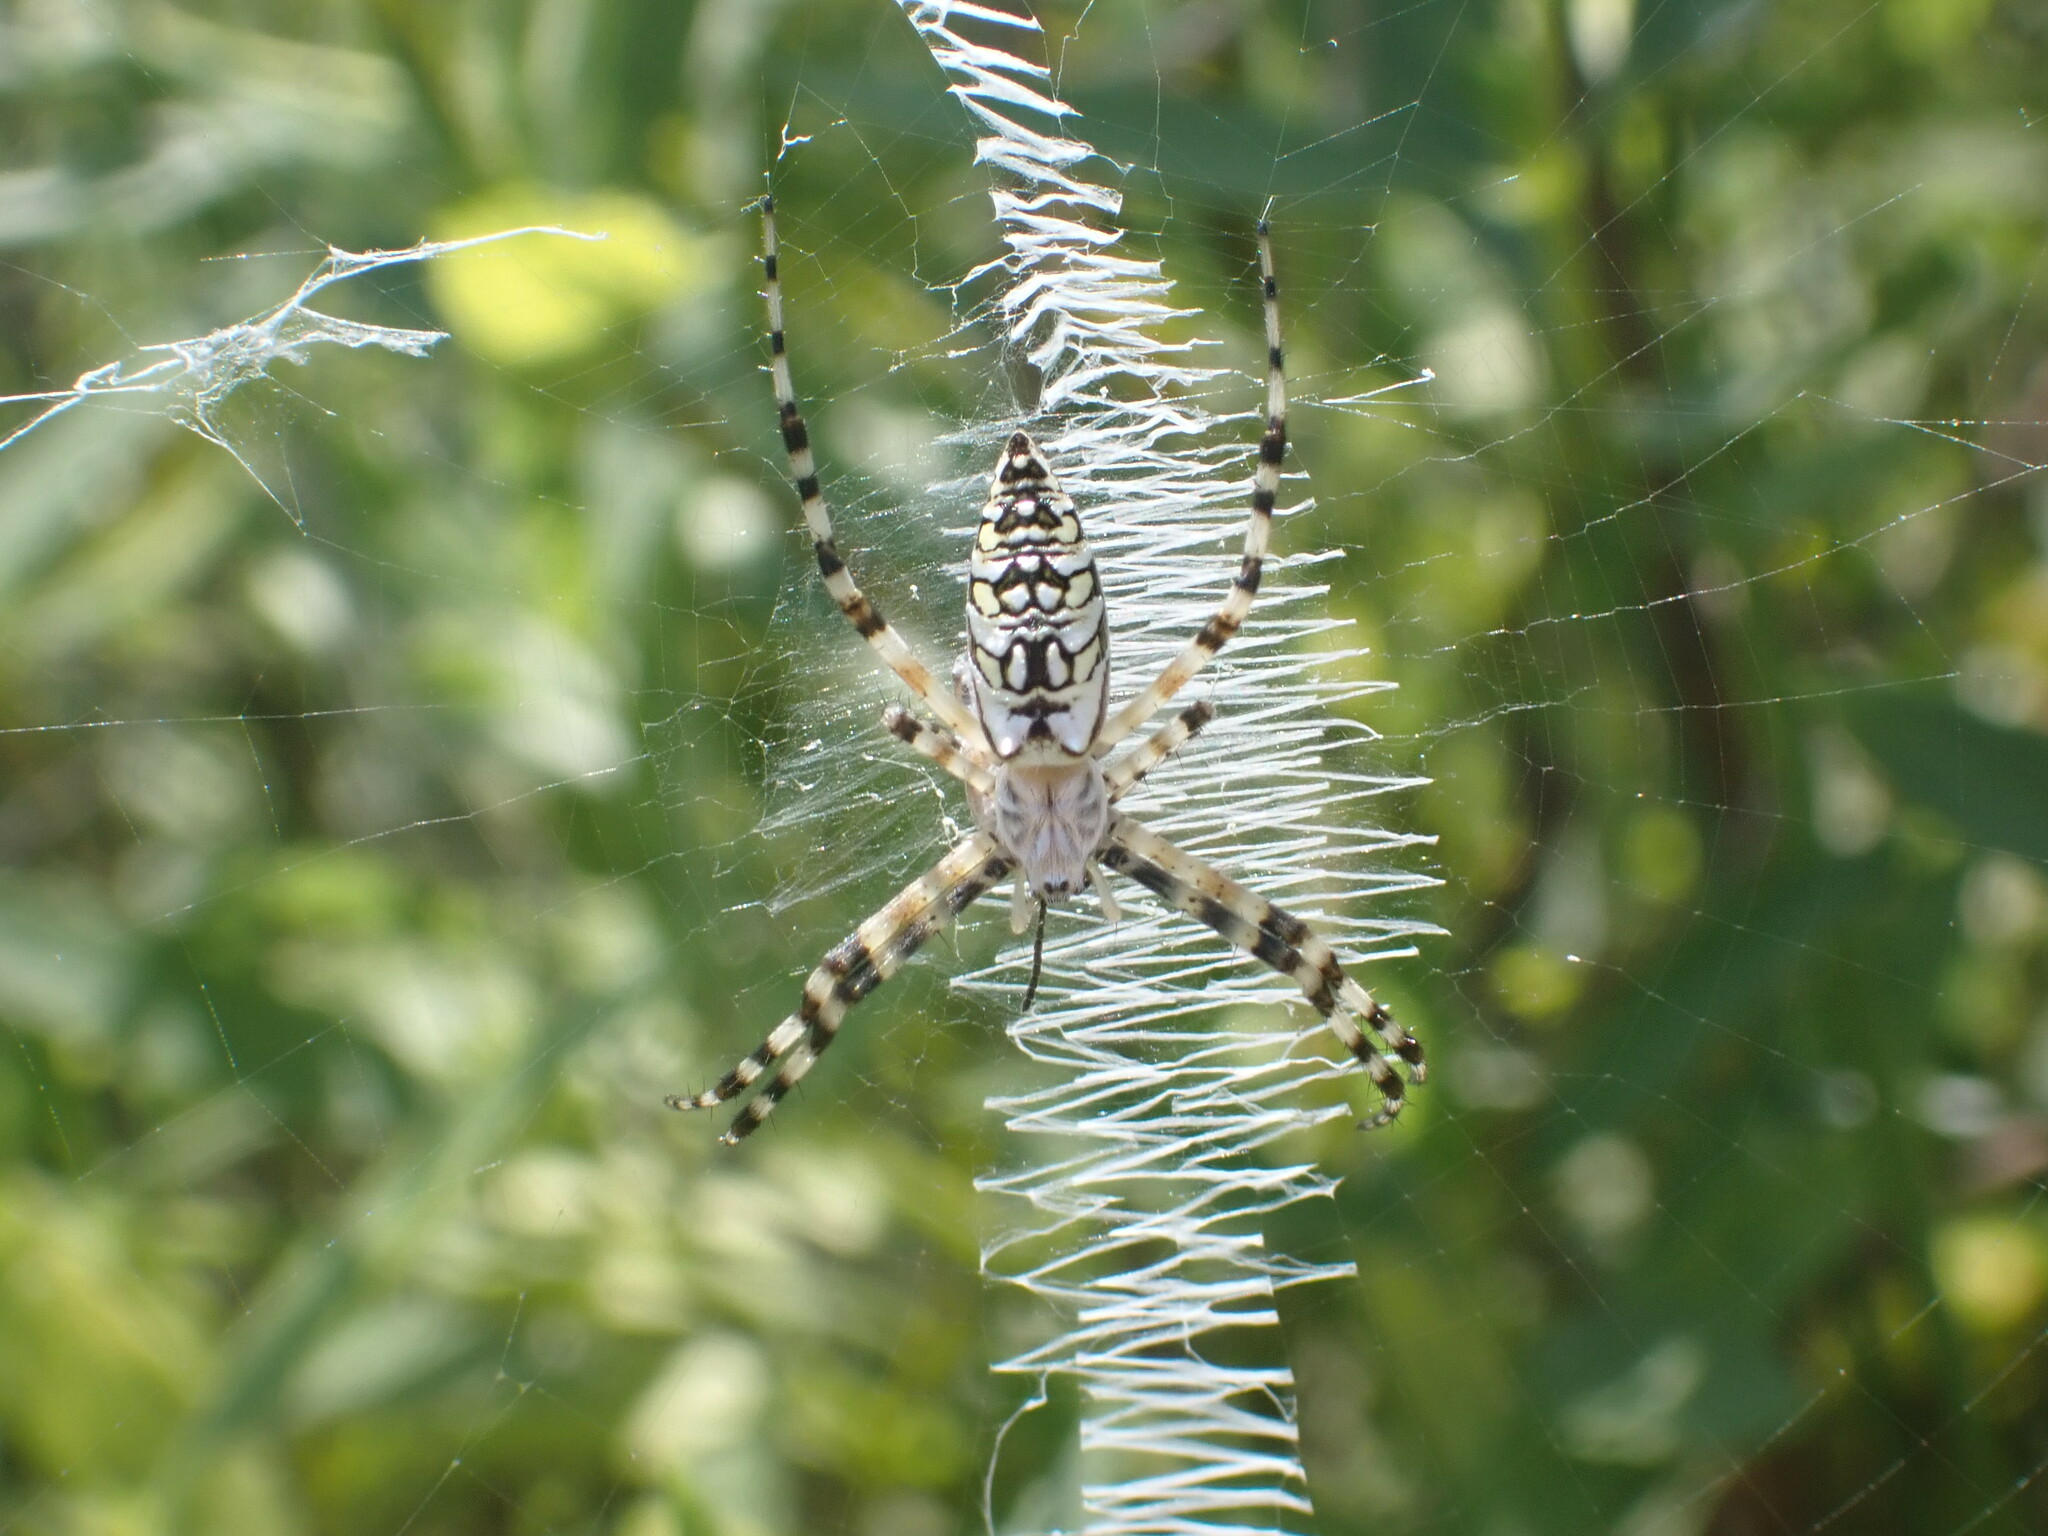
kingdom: Animalia
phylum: Arthropoda
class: Arachnida
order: Araneae
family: Araneidae
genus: Argiope
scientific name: Argiope aurantia
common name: Orb weavers
